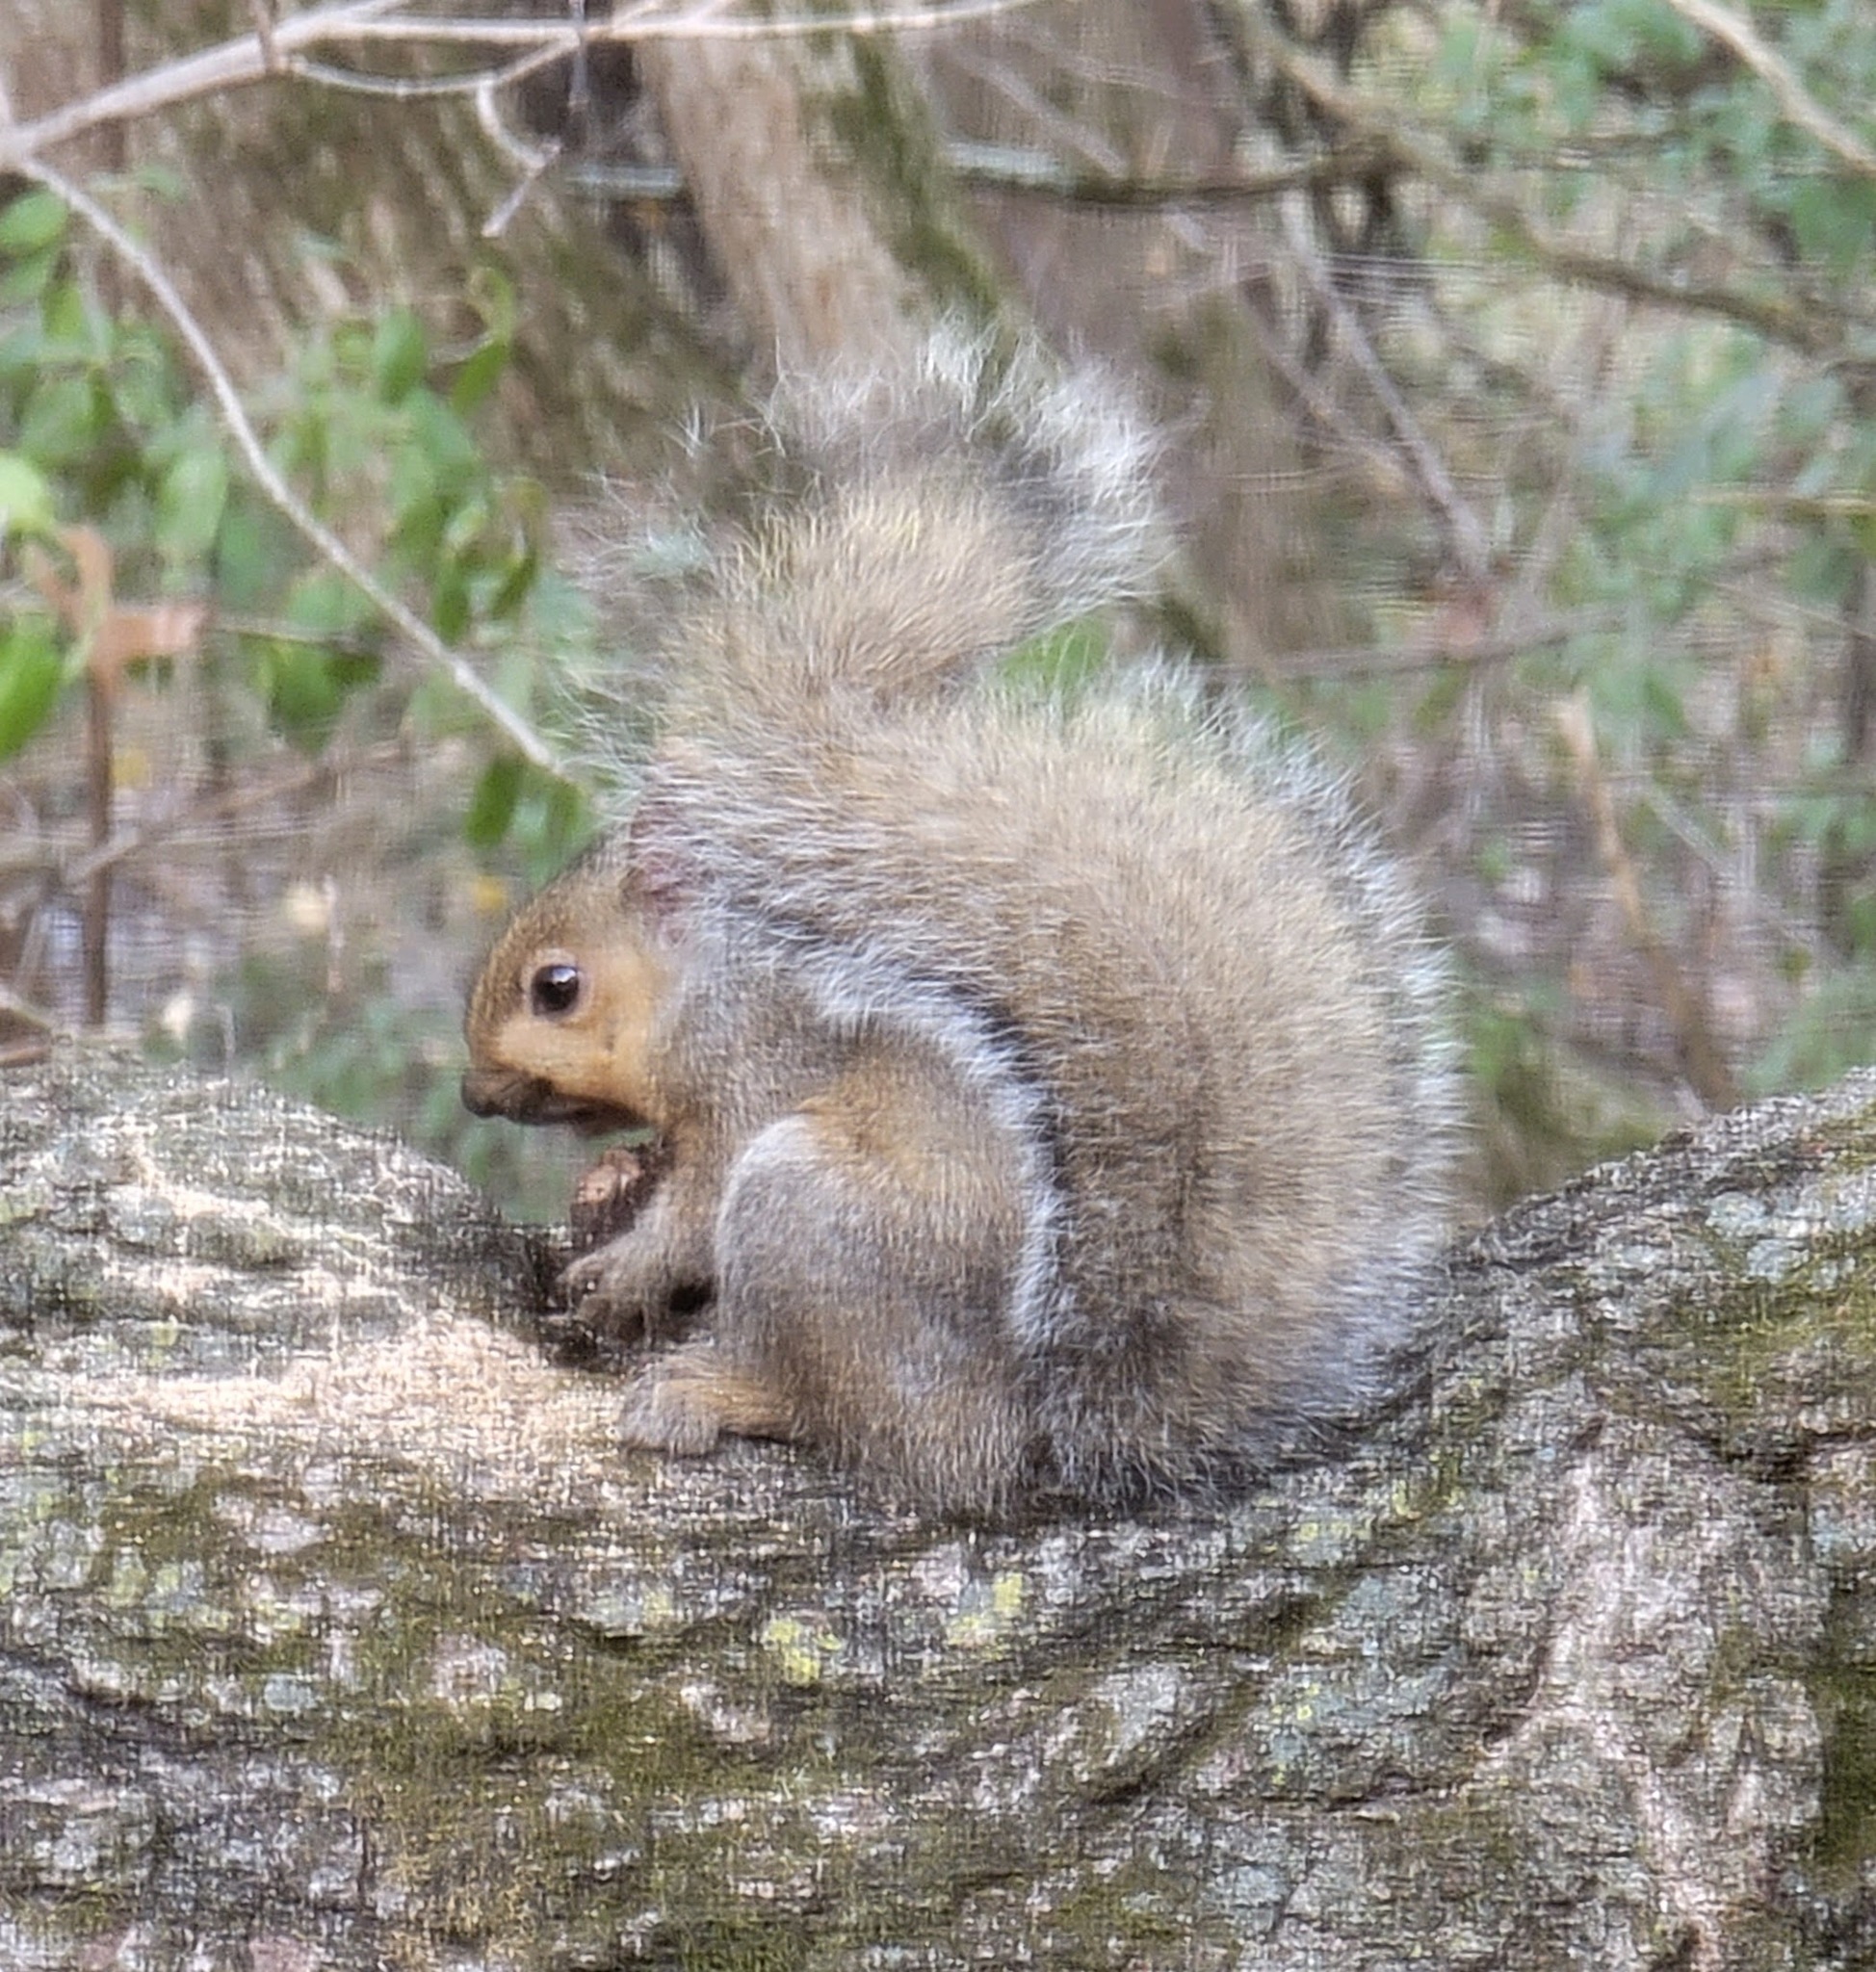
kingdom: Animalia
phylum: Chordata
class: Mammalia
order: Rodentia
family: Sciuridae
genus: Sciurus
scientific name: Sciurus carolinensis
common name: Eastern gray squirrel
